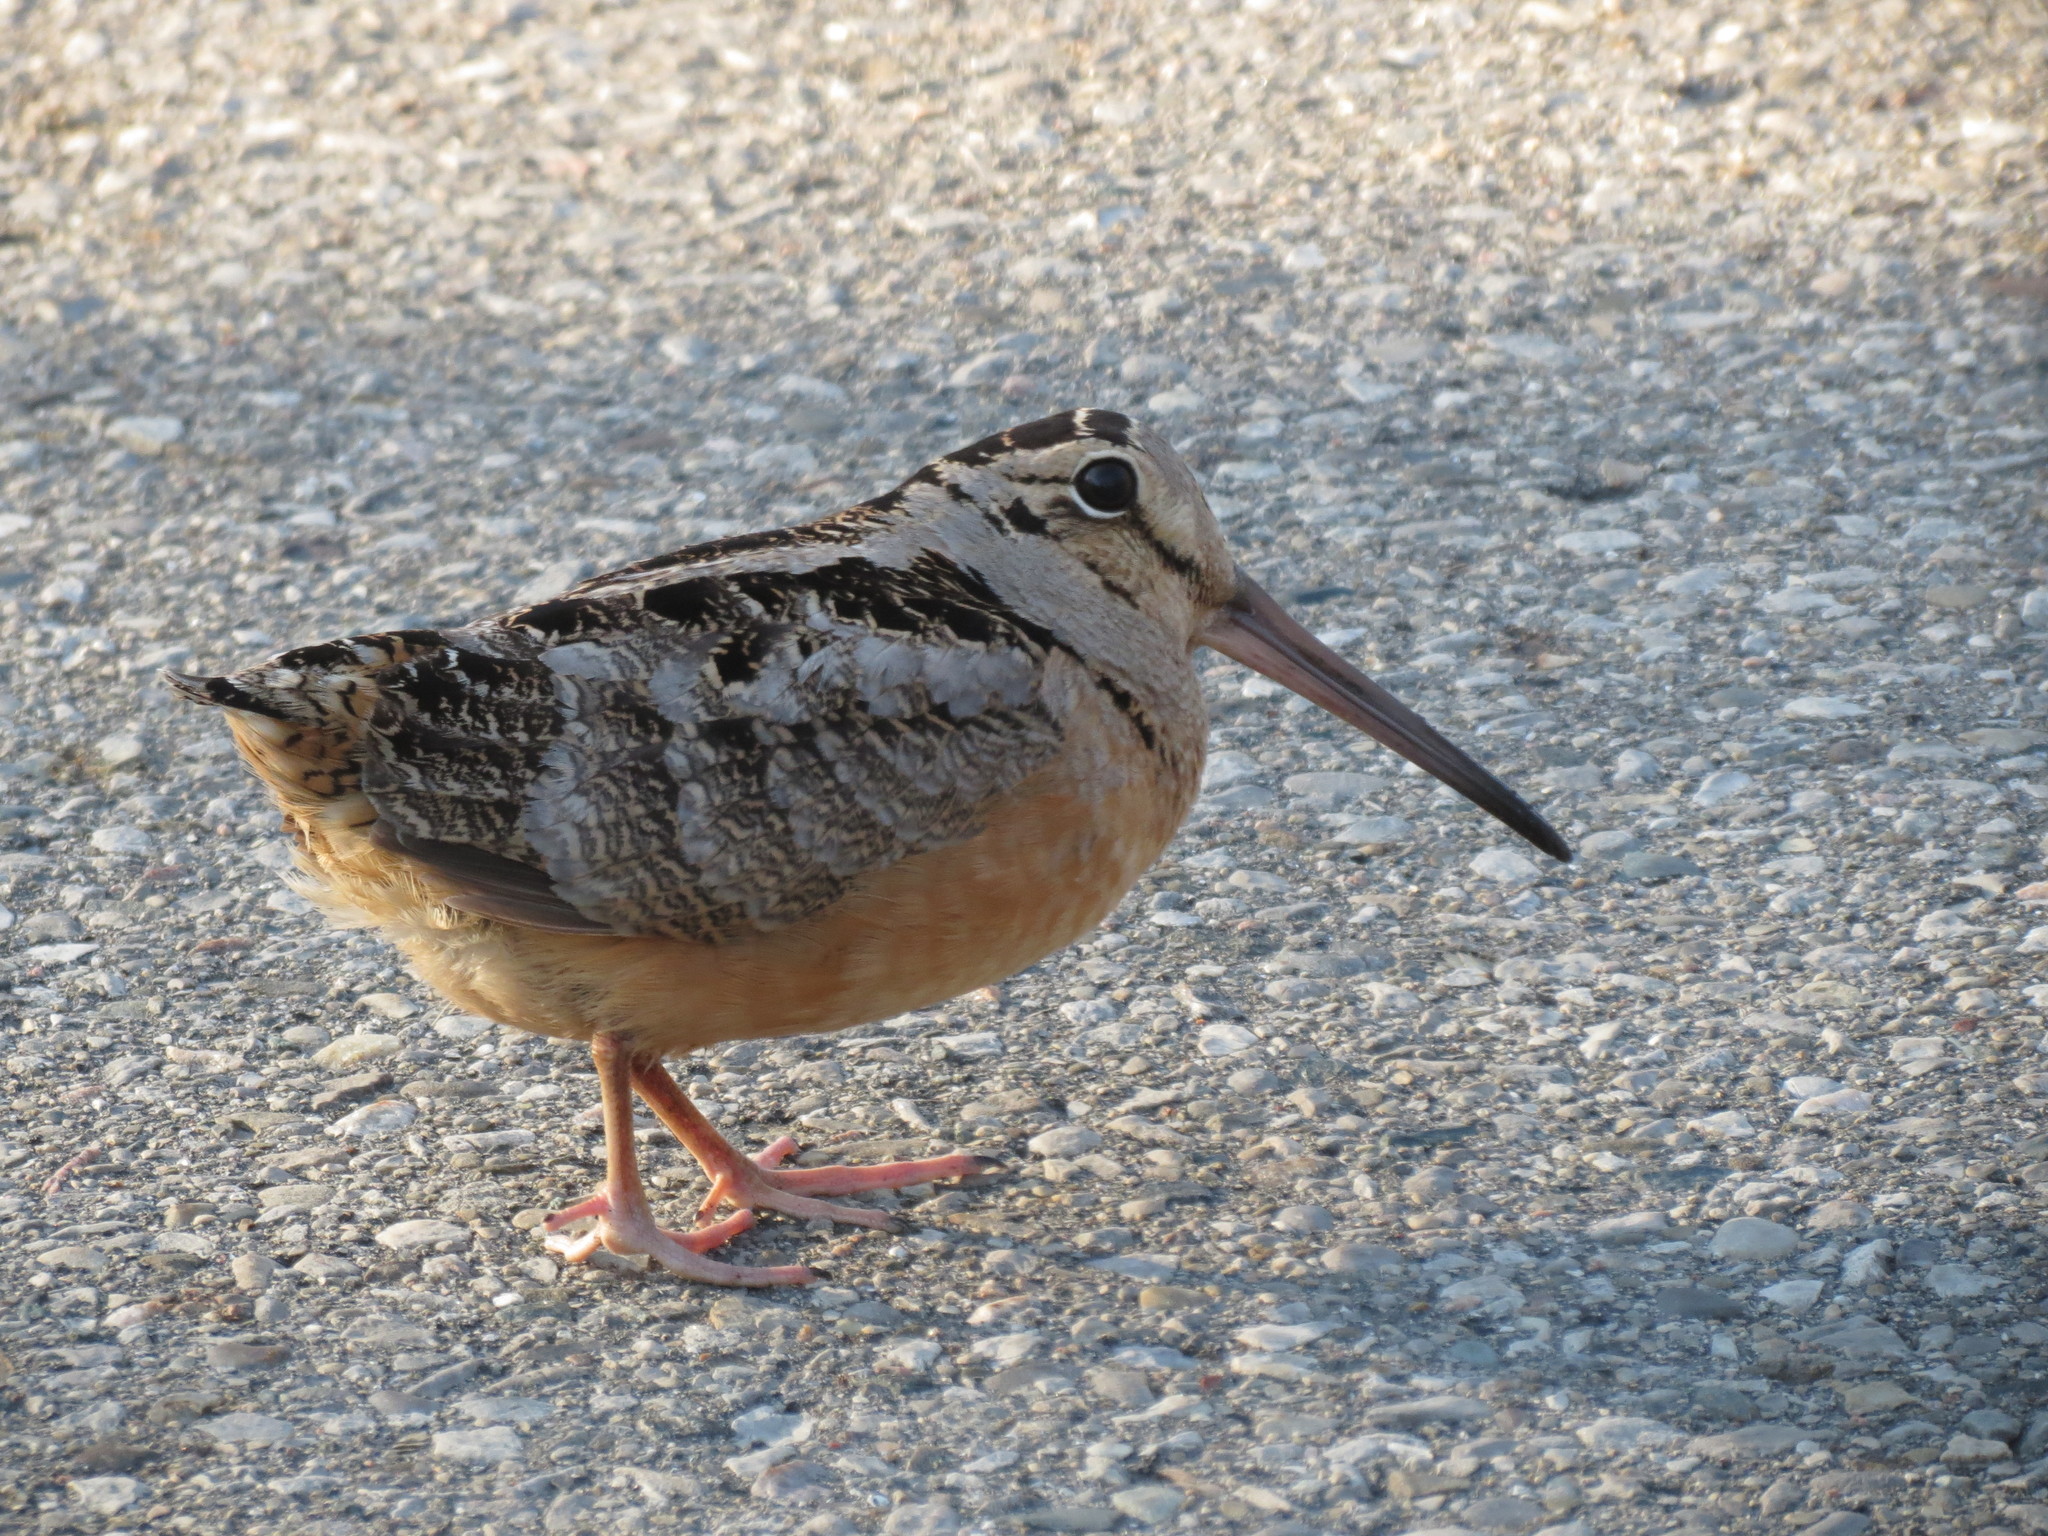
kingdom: Animalia
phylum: Chordata
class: Aves
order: Charadriiformes
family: Scolopacidae
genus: Scolopax
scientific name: Scolopax minor
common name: American woodcock
